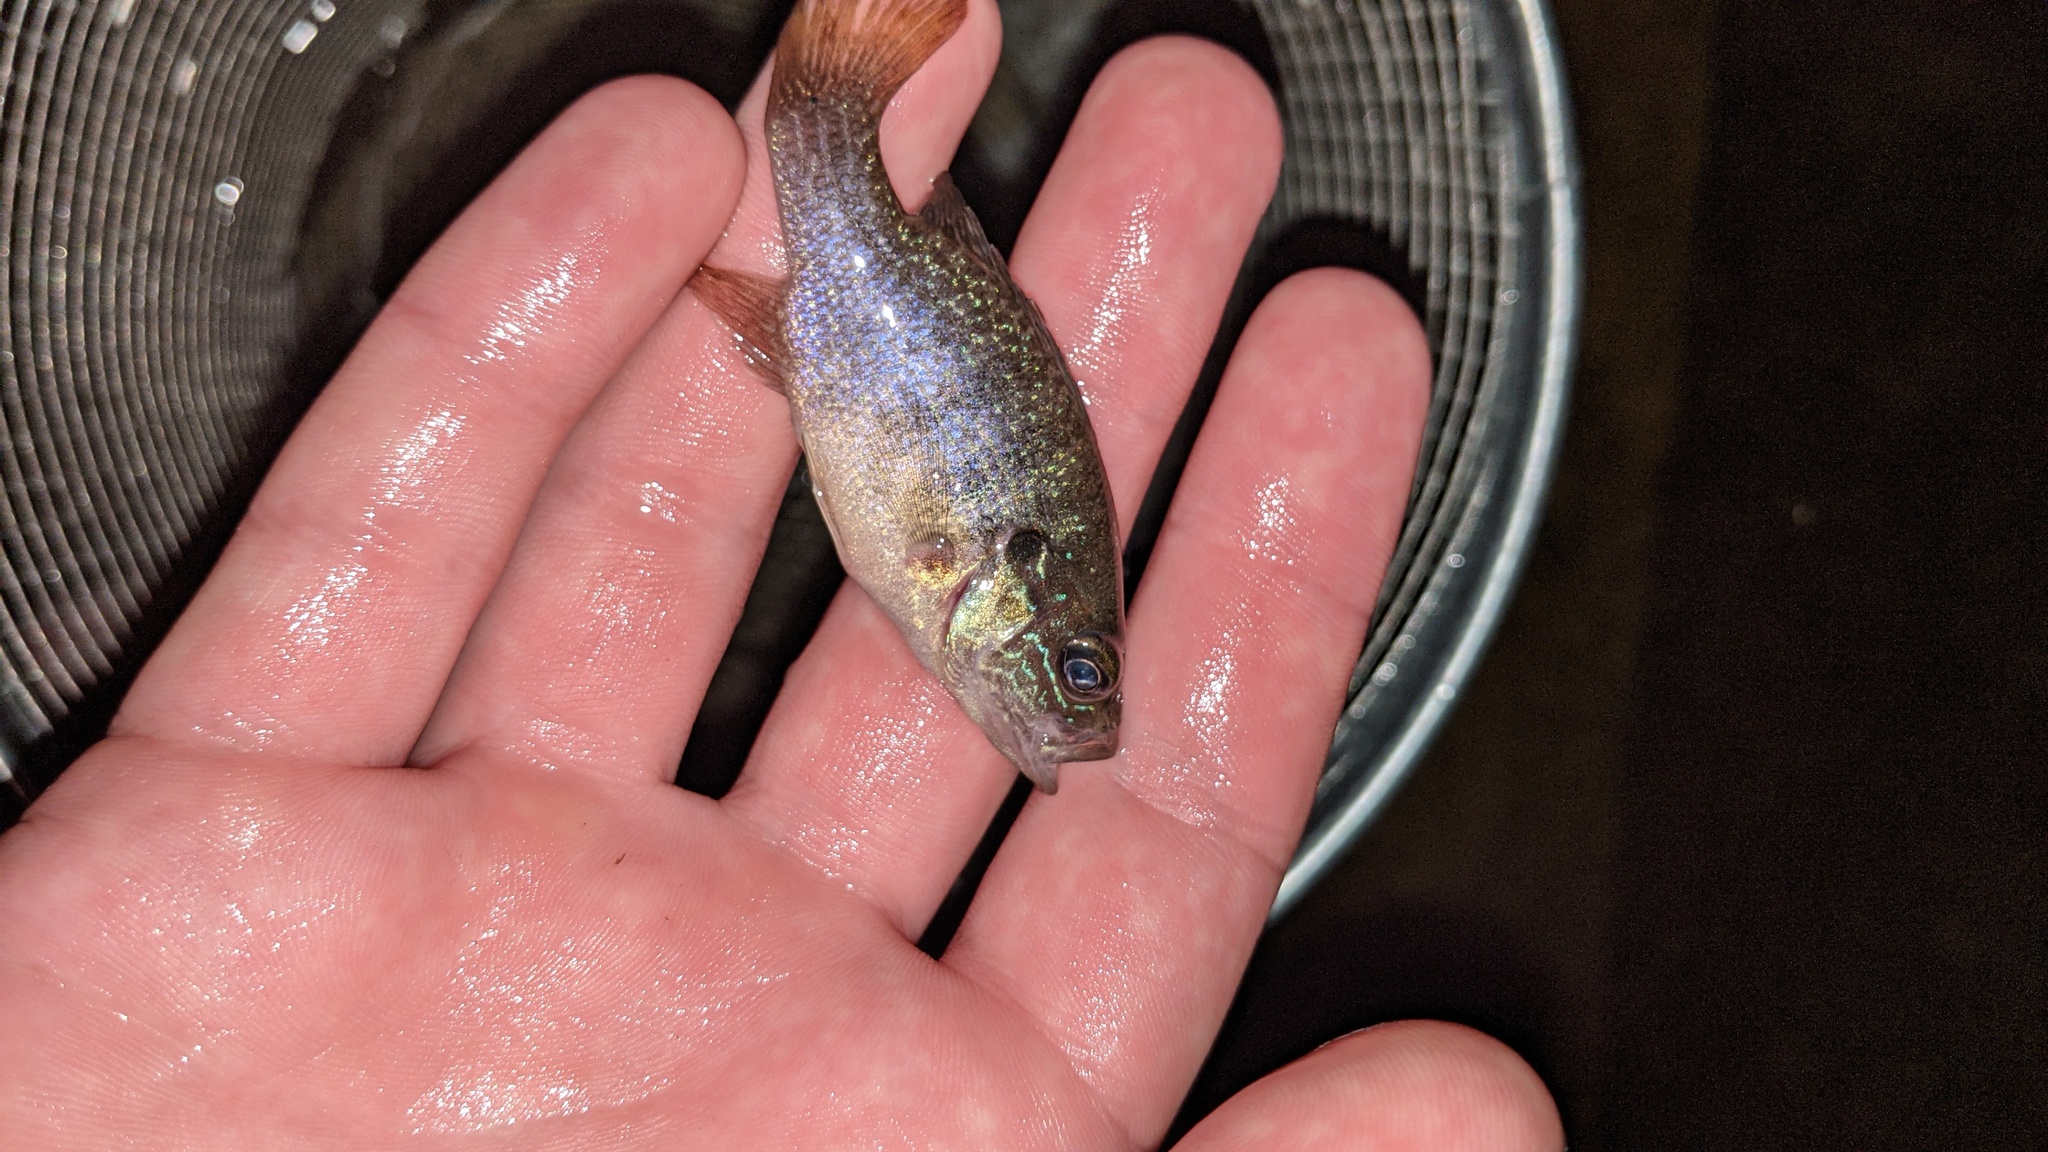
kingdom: Animalia
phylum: Chordata
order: Perciformes
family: Centrarchidae
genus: Lepomis
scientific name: Lepomis cyanellus
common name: Green sunfish
